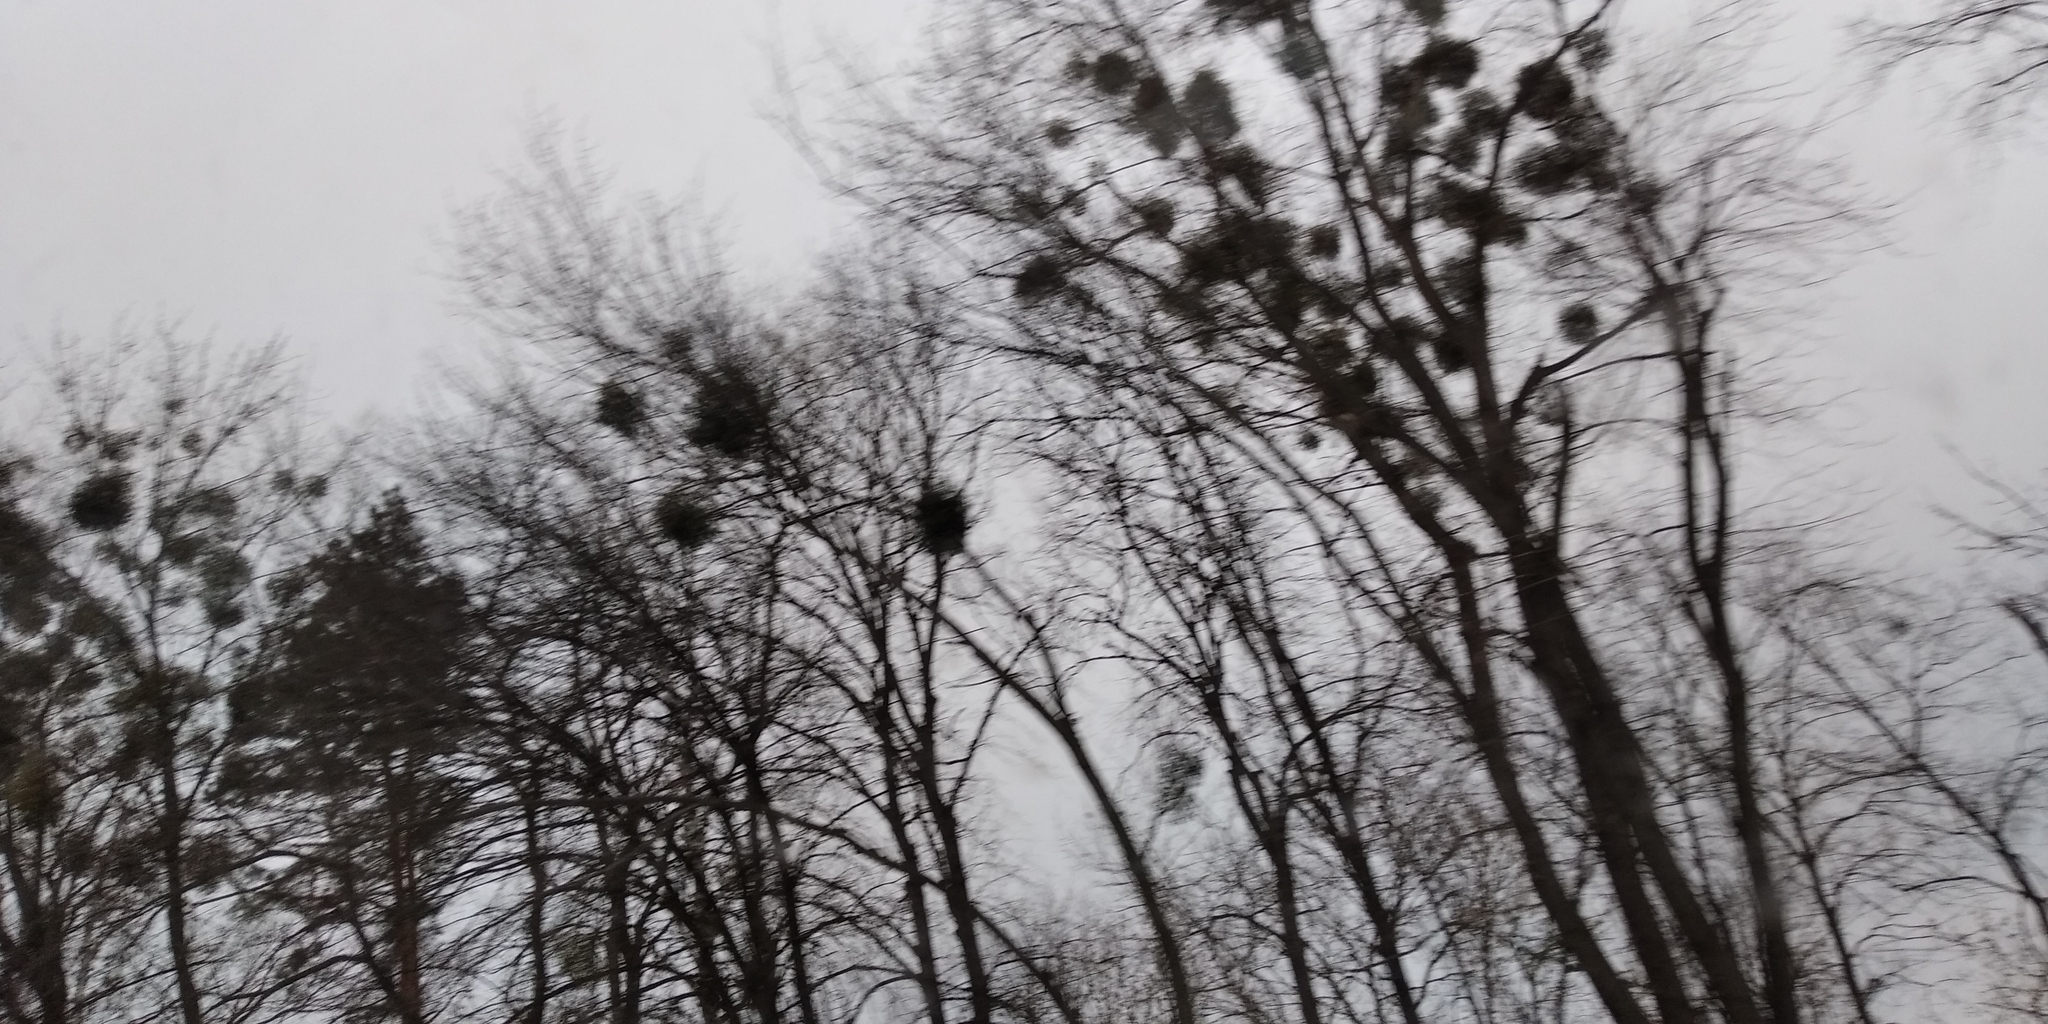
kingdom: Plantae
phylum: Tracheophyta
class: Magnoliopsida
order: Santalales
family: Viscaceae
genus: Viscum
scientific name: Viscum album
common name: Mistletoe
